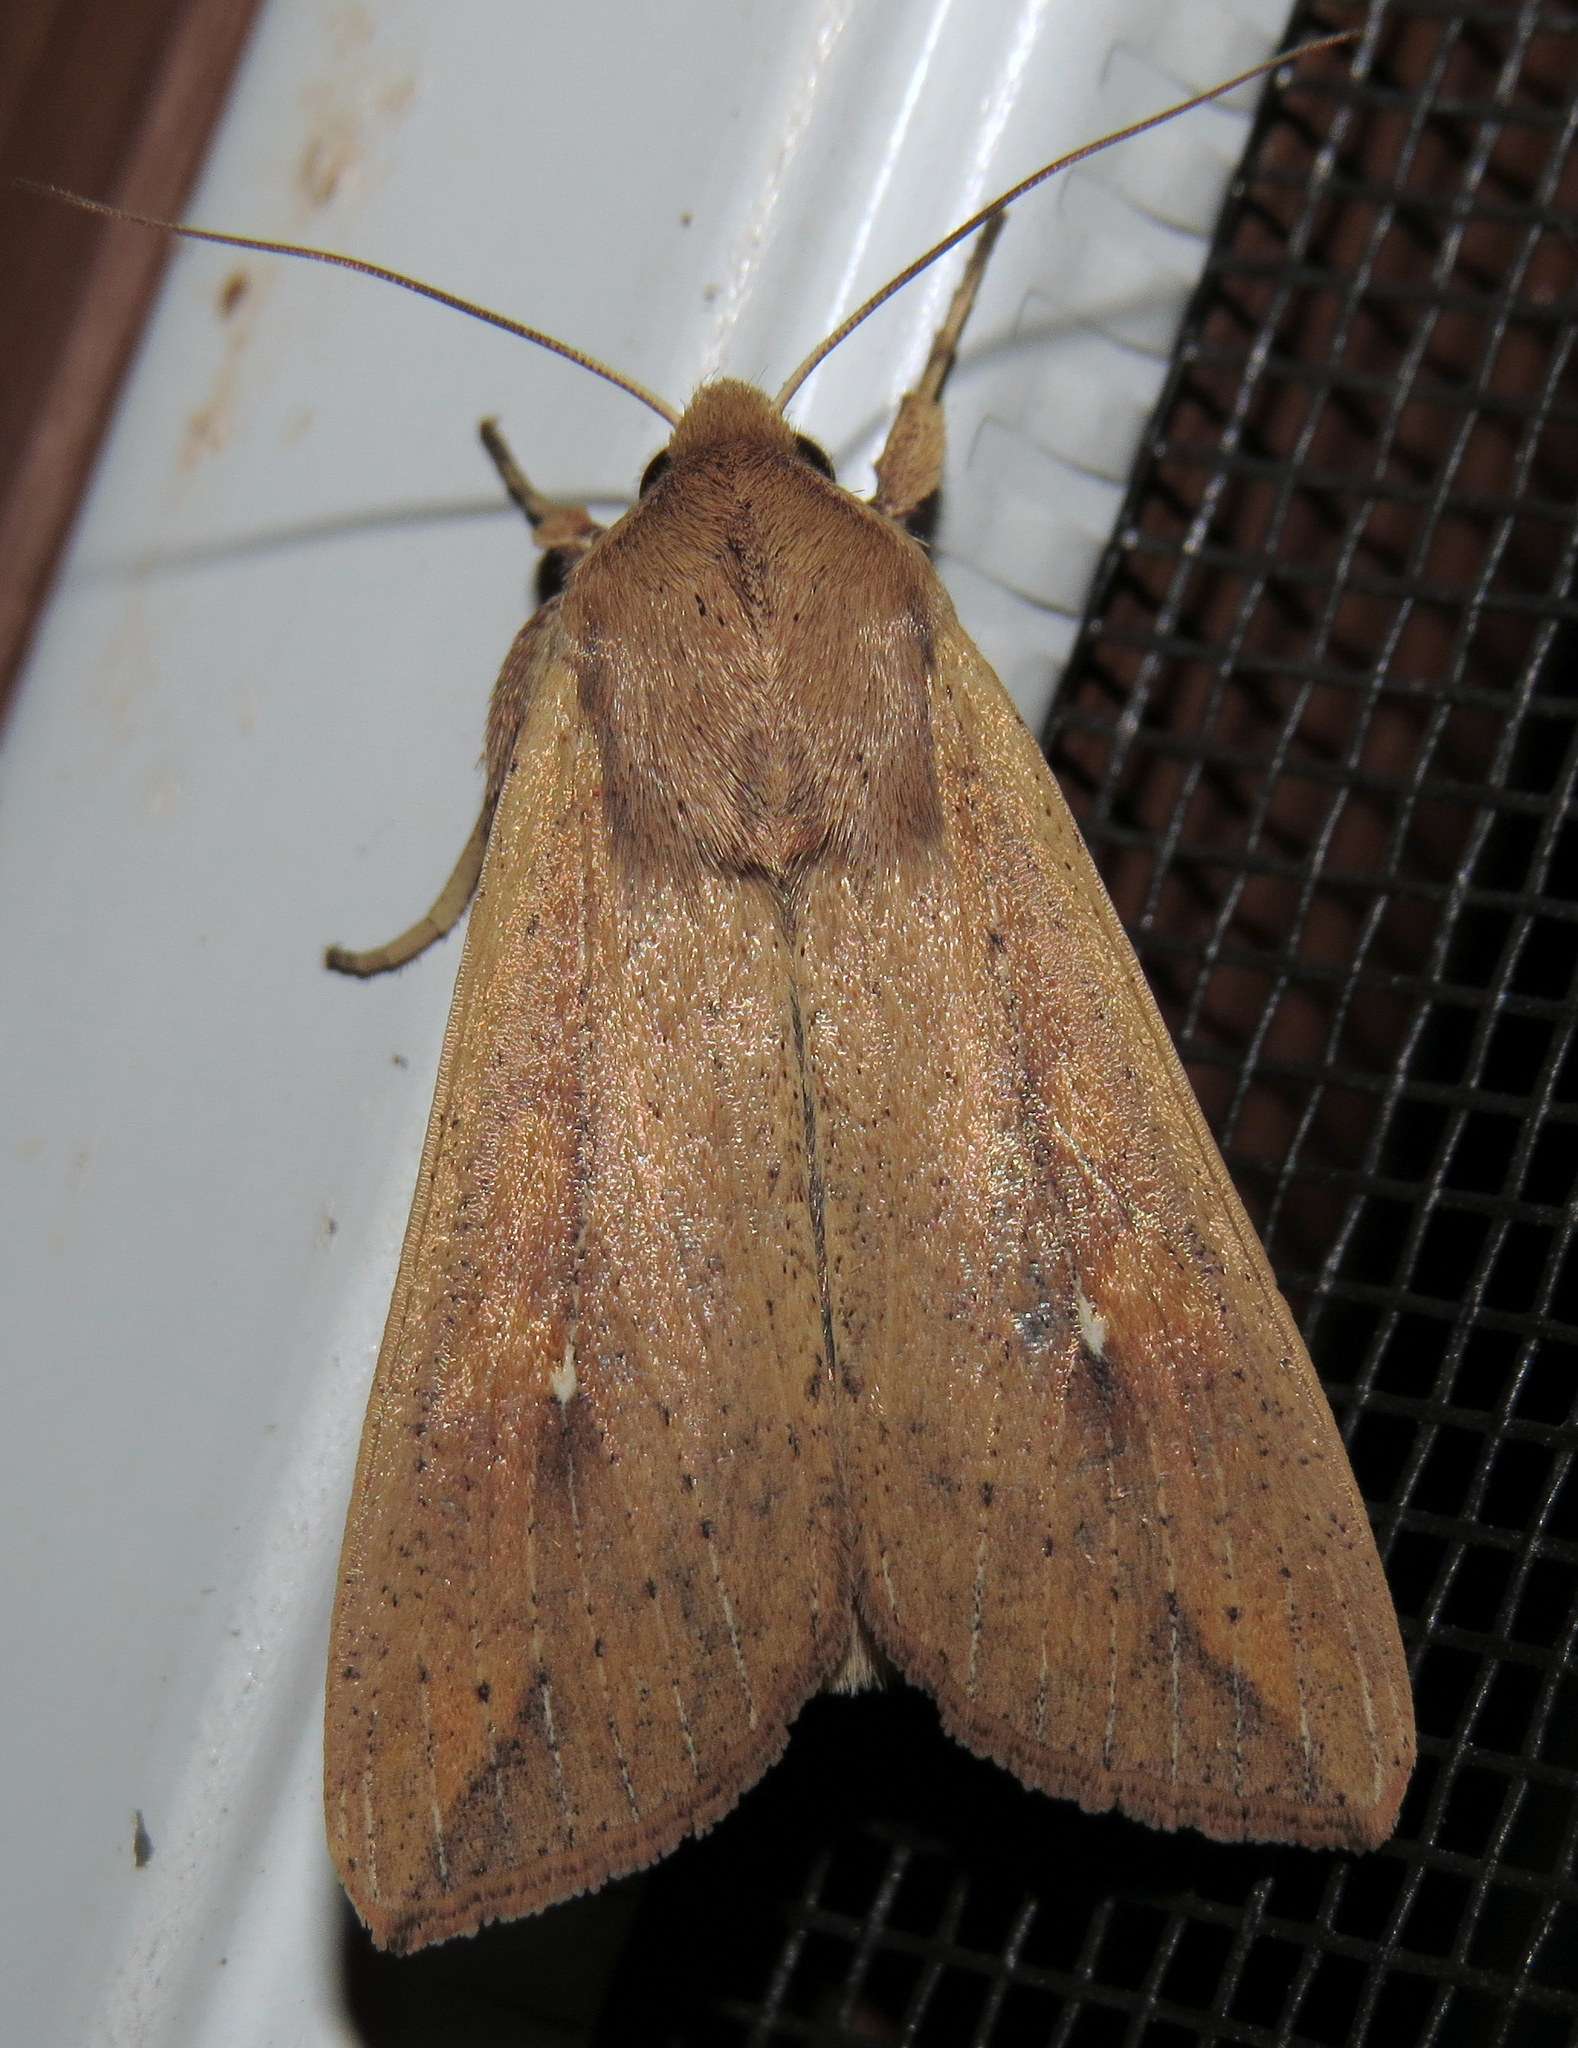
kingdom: Animalia
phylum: Arthropoda
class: Insecta
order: Lepidoptera
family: Noctuidae
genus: Mythimna
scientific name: Mythimna unipuncta
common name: White-speck
